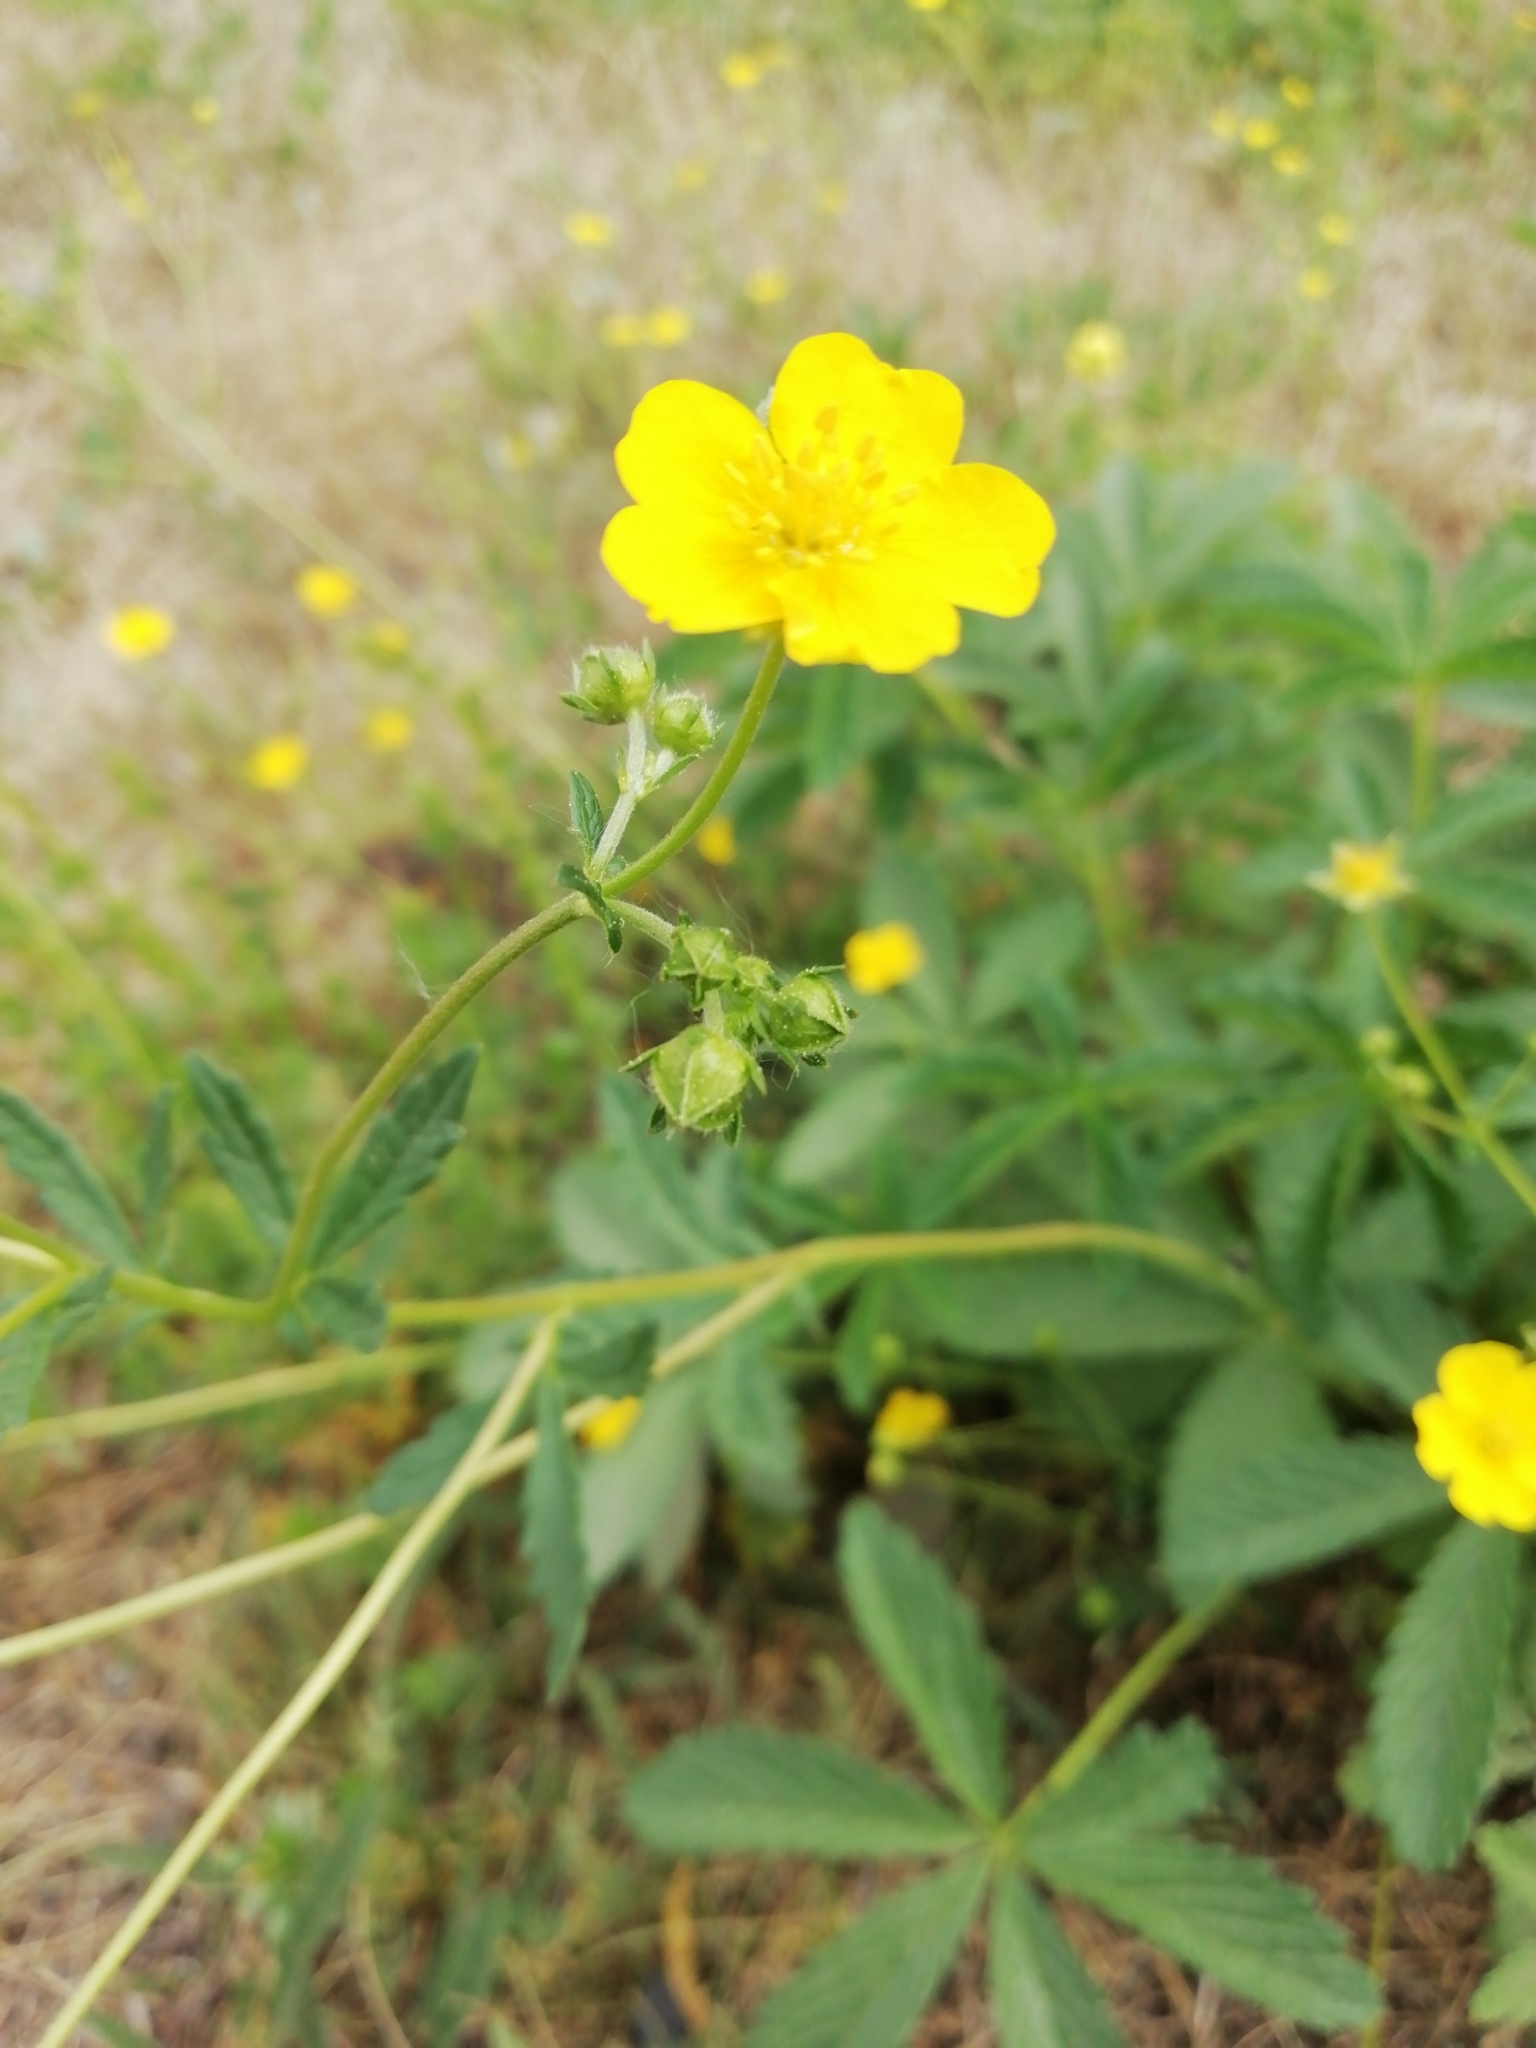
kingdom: Plantae
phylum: Tracheophyta
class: Magnoliopsida
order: Rosales
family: Rosaceae
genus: Potentilla
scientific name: Potentilla chrysantha
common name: Thuringian cinquefoil
